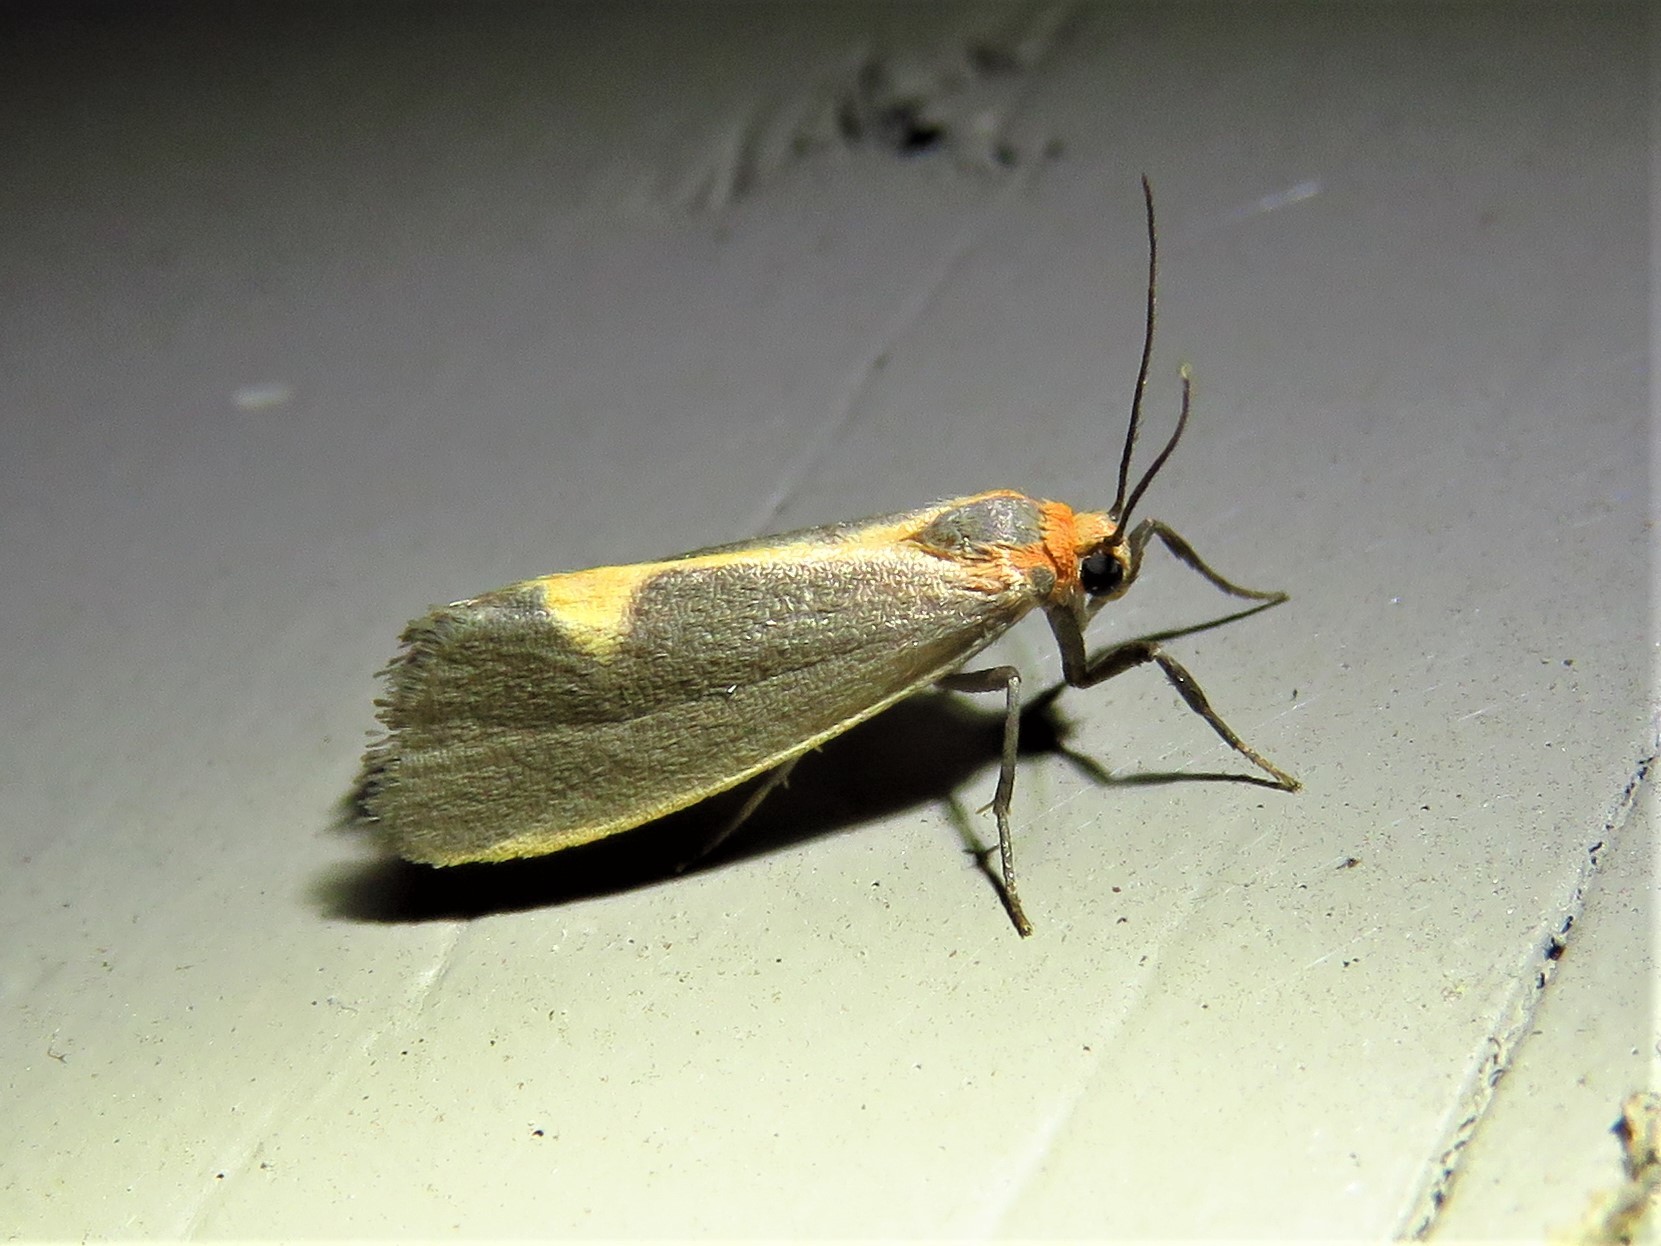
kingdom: Animalia
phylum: Arthropoda
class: Insecta
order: Lepidoptera
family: Erebidae
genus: Cisthene
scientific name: Cisthene plumbea
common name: Lead colored lichen moth
